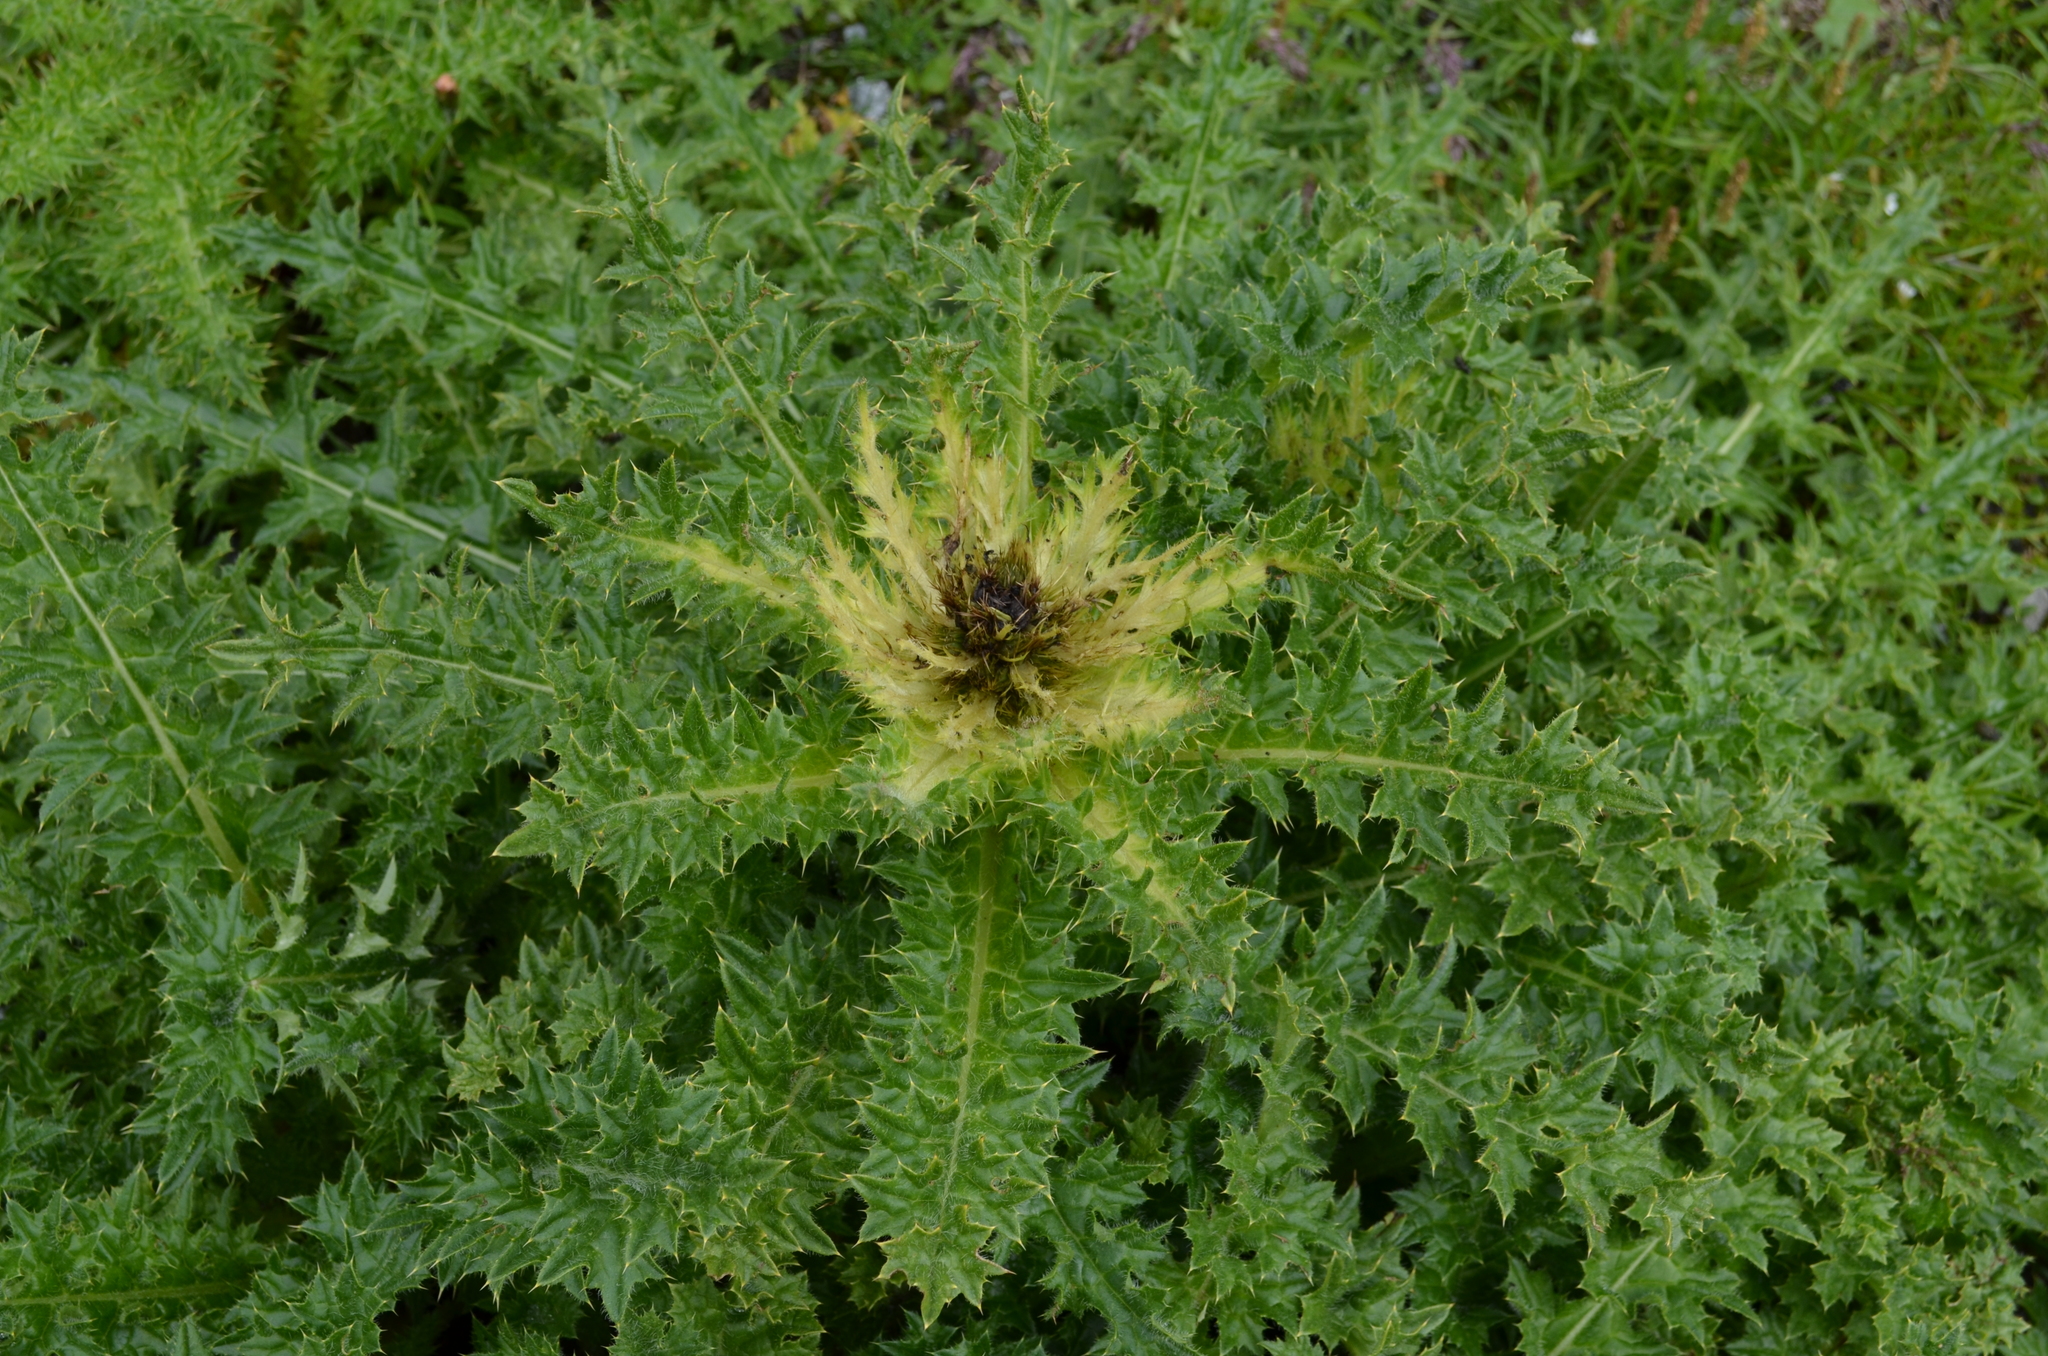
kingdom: Plantae
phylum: Tracheophyta
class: Magnoliopsida
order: Asterales
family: Asteraceae
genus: Cirsium
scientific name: Cirsium spinosissimum
